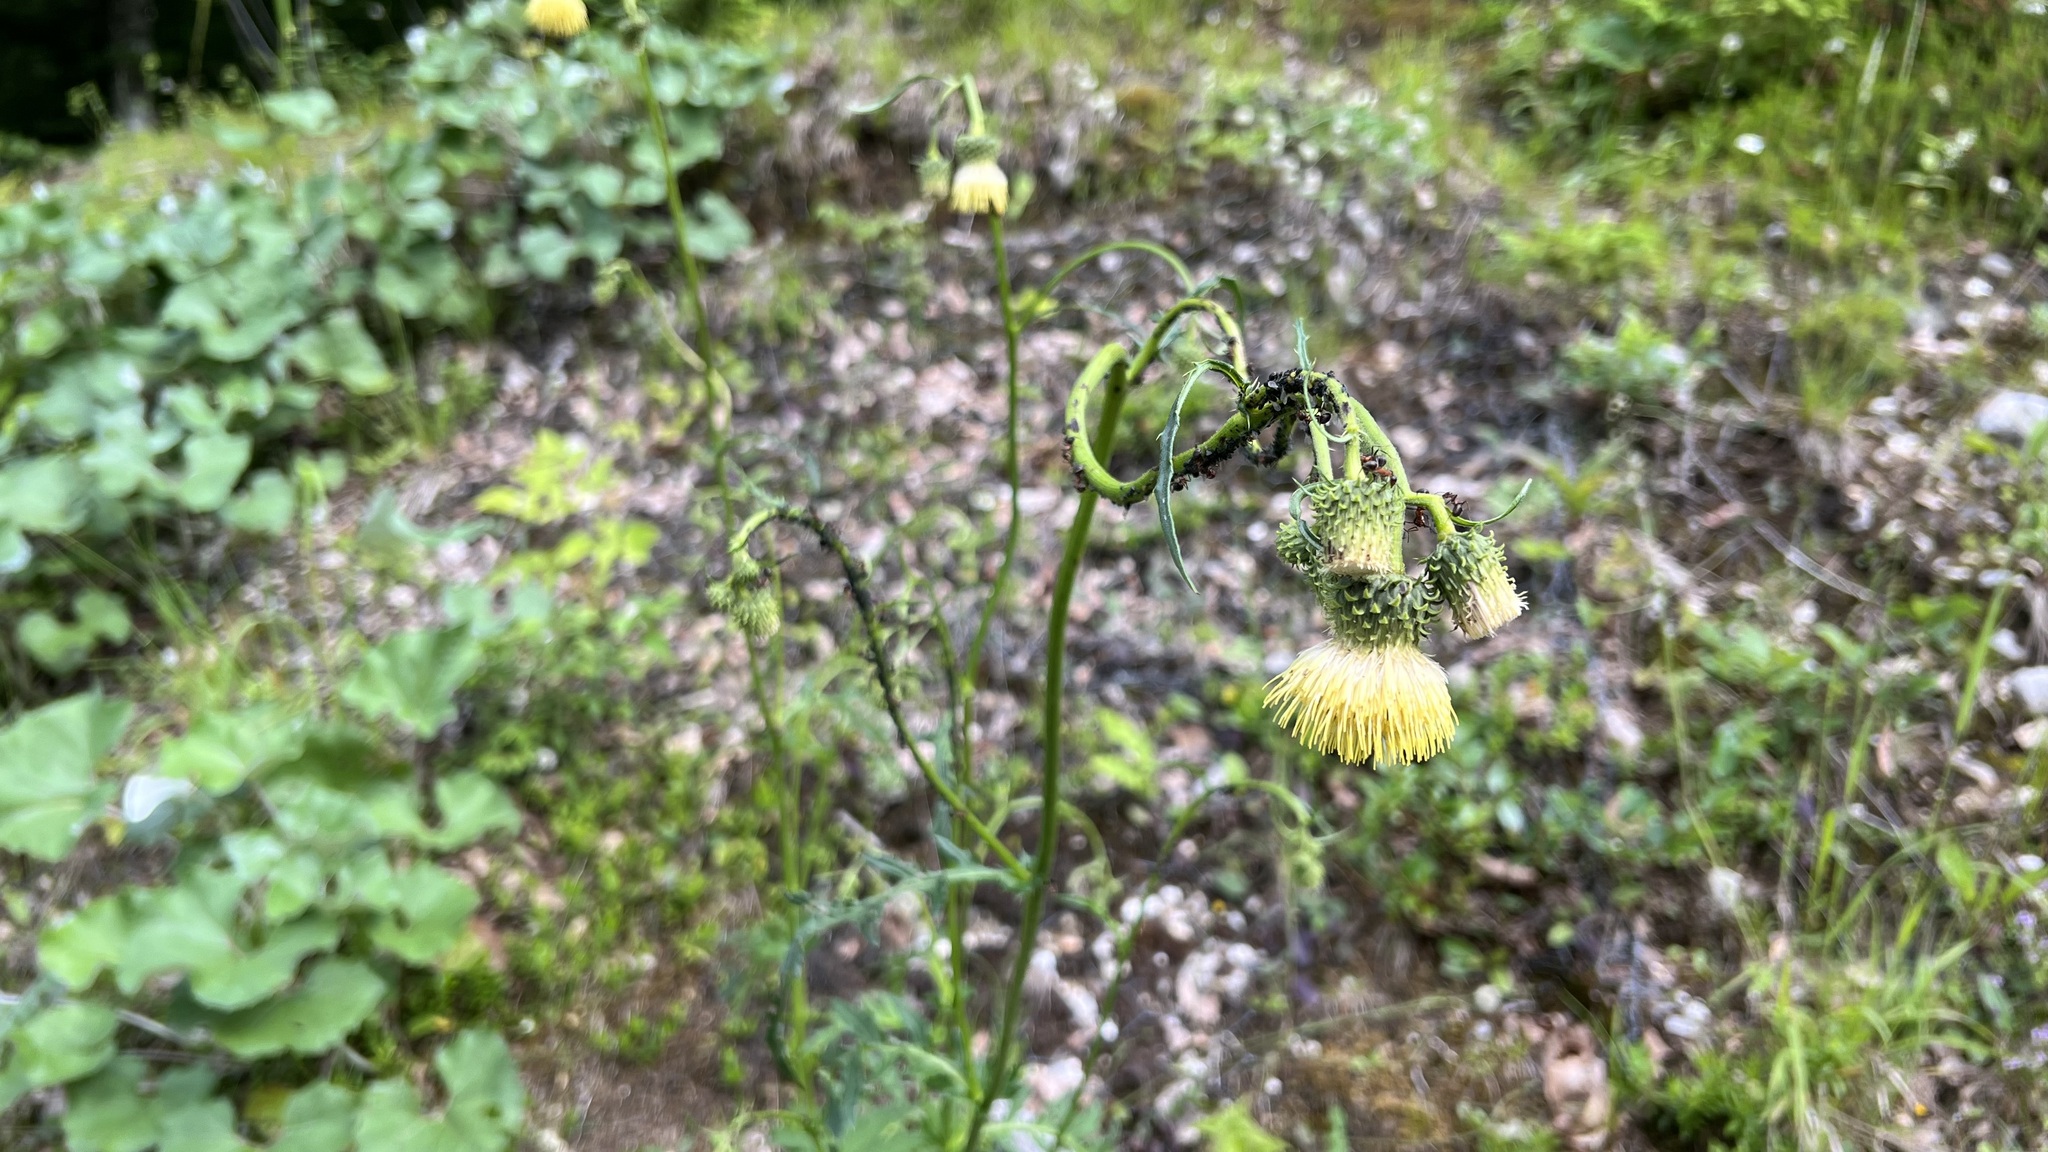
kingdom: Plantae
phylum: Tracheophyta
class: Magnoliopsida
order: Asterales
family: Asteraceae
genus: Cirsium
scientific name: Cirsium erisithales
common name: Yellow thistle
